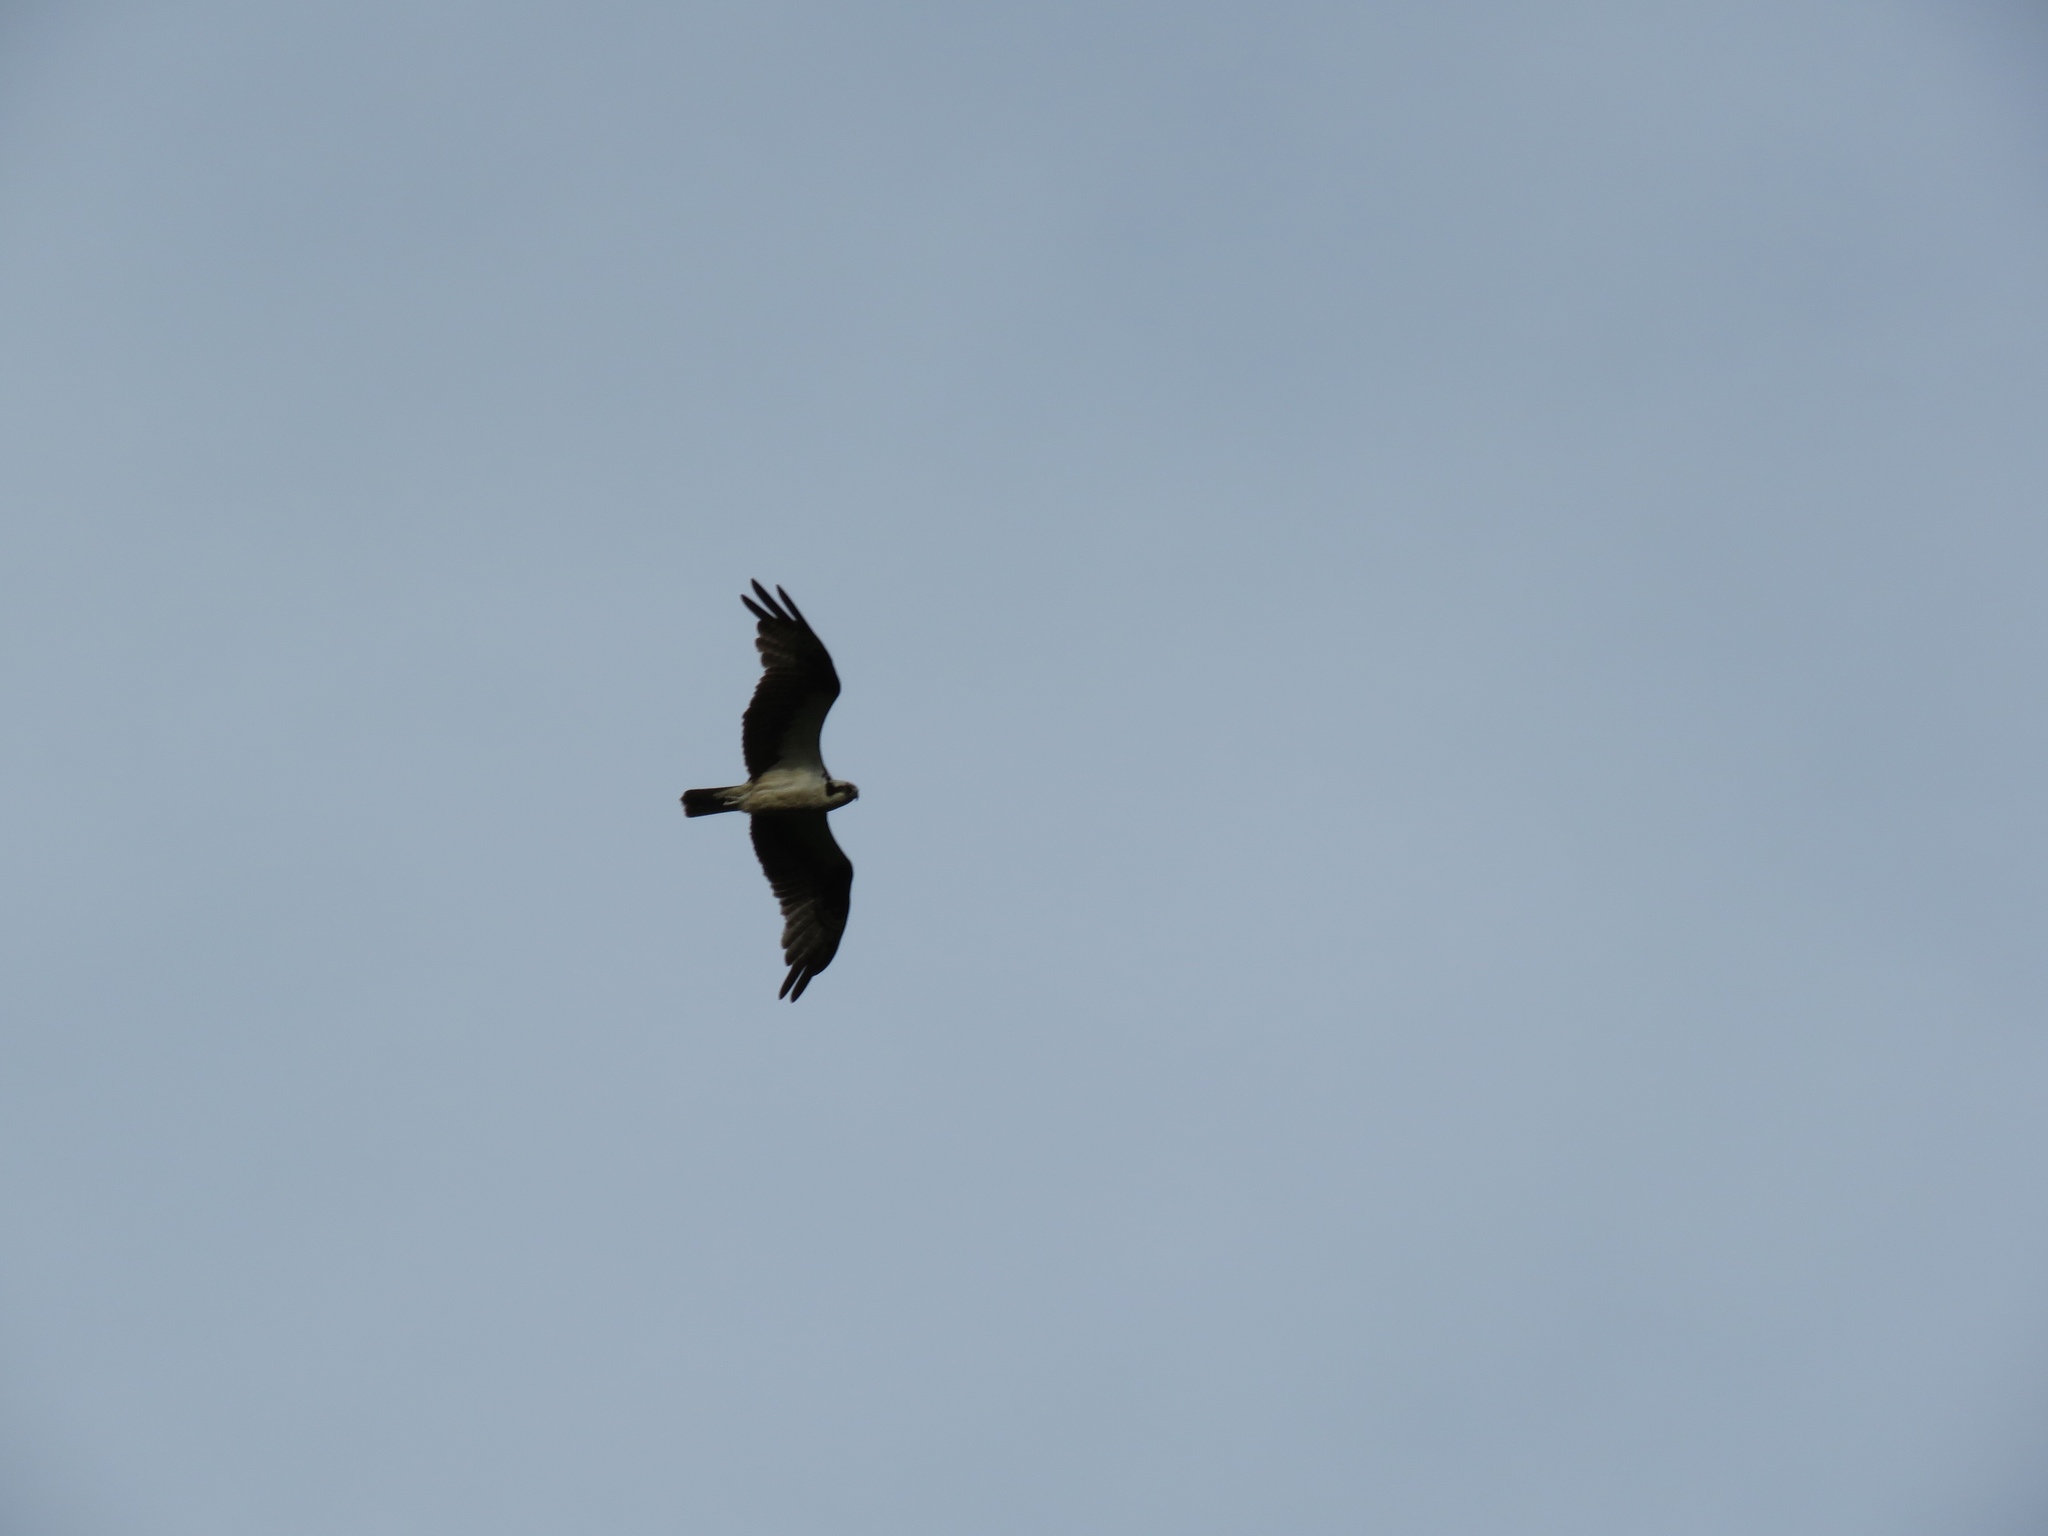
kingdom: Animalia
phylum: Chordata
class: Aves
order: Accipitriformes
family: Pandionidae
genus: Pandion
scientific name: Pandion haliaetus
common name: Osprey
